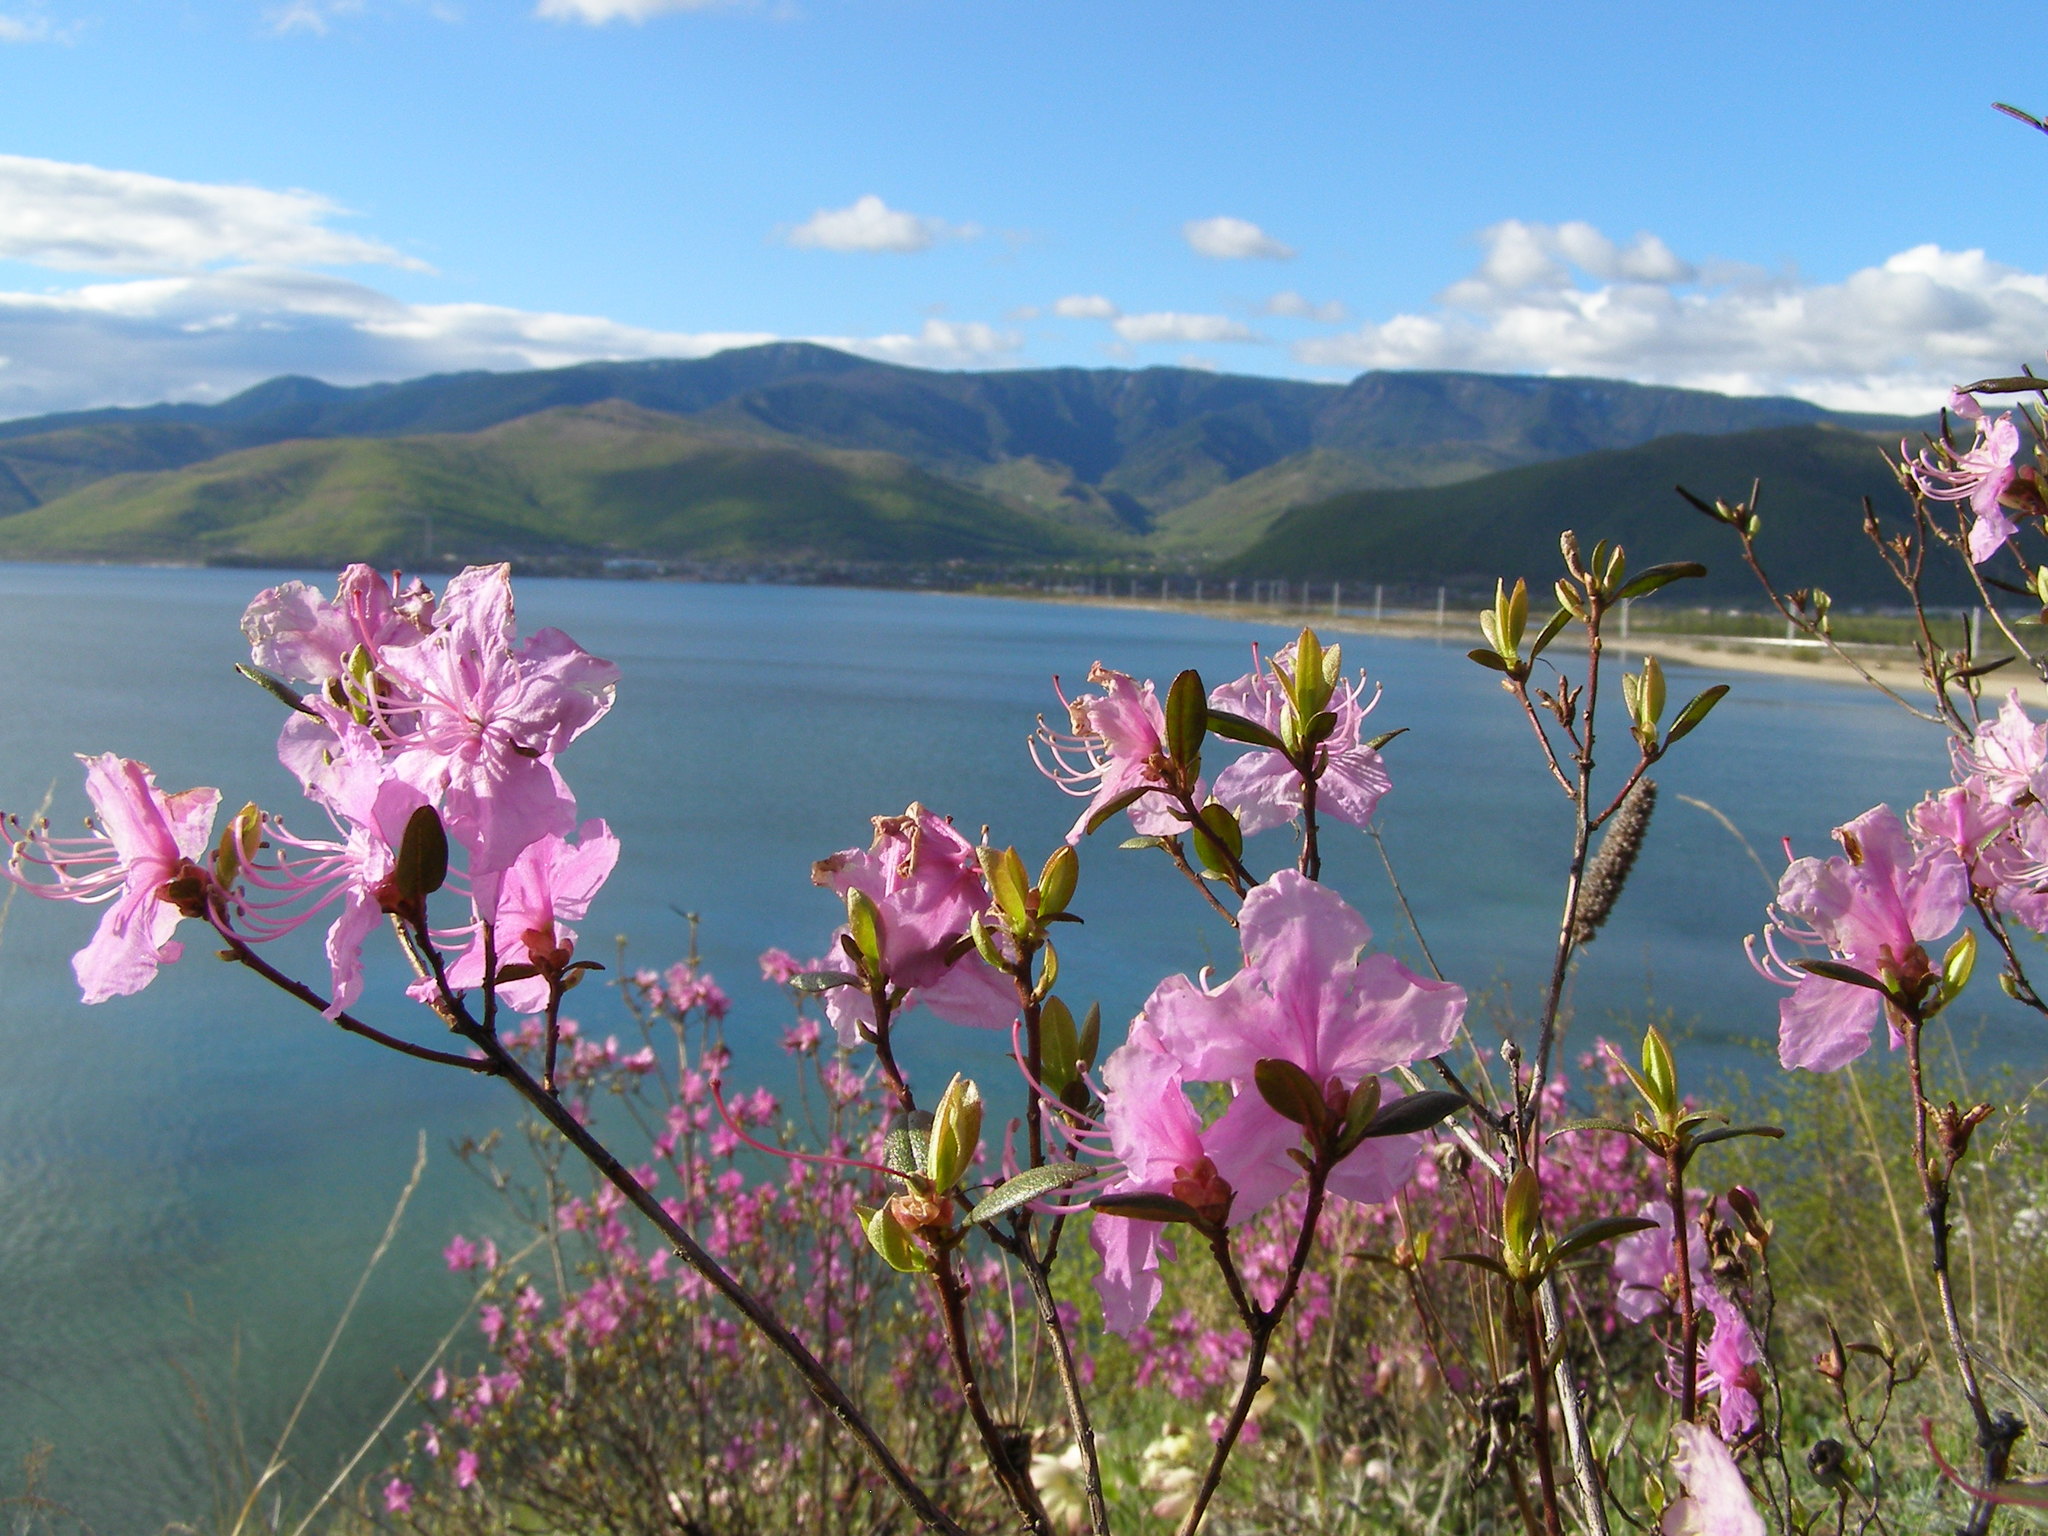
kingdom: Plantae
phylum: Tracheophyta
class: Magnoliopsida
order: Ericales
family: Ericaceae
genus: Rhododendron
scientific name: Rhododendron dauricum
